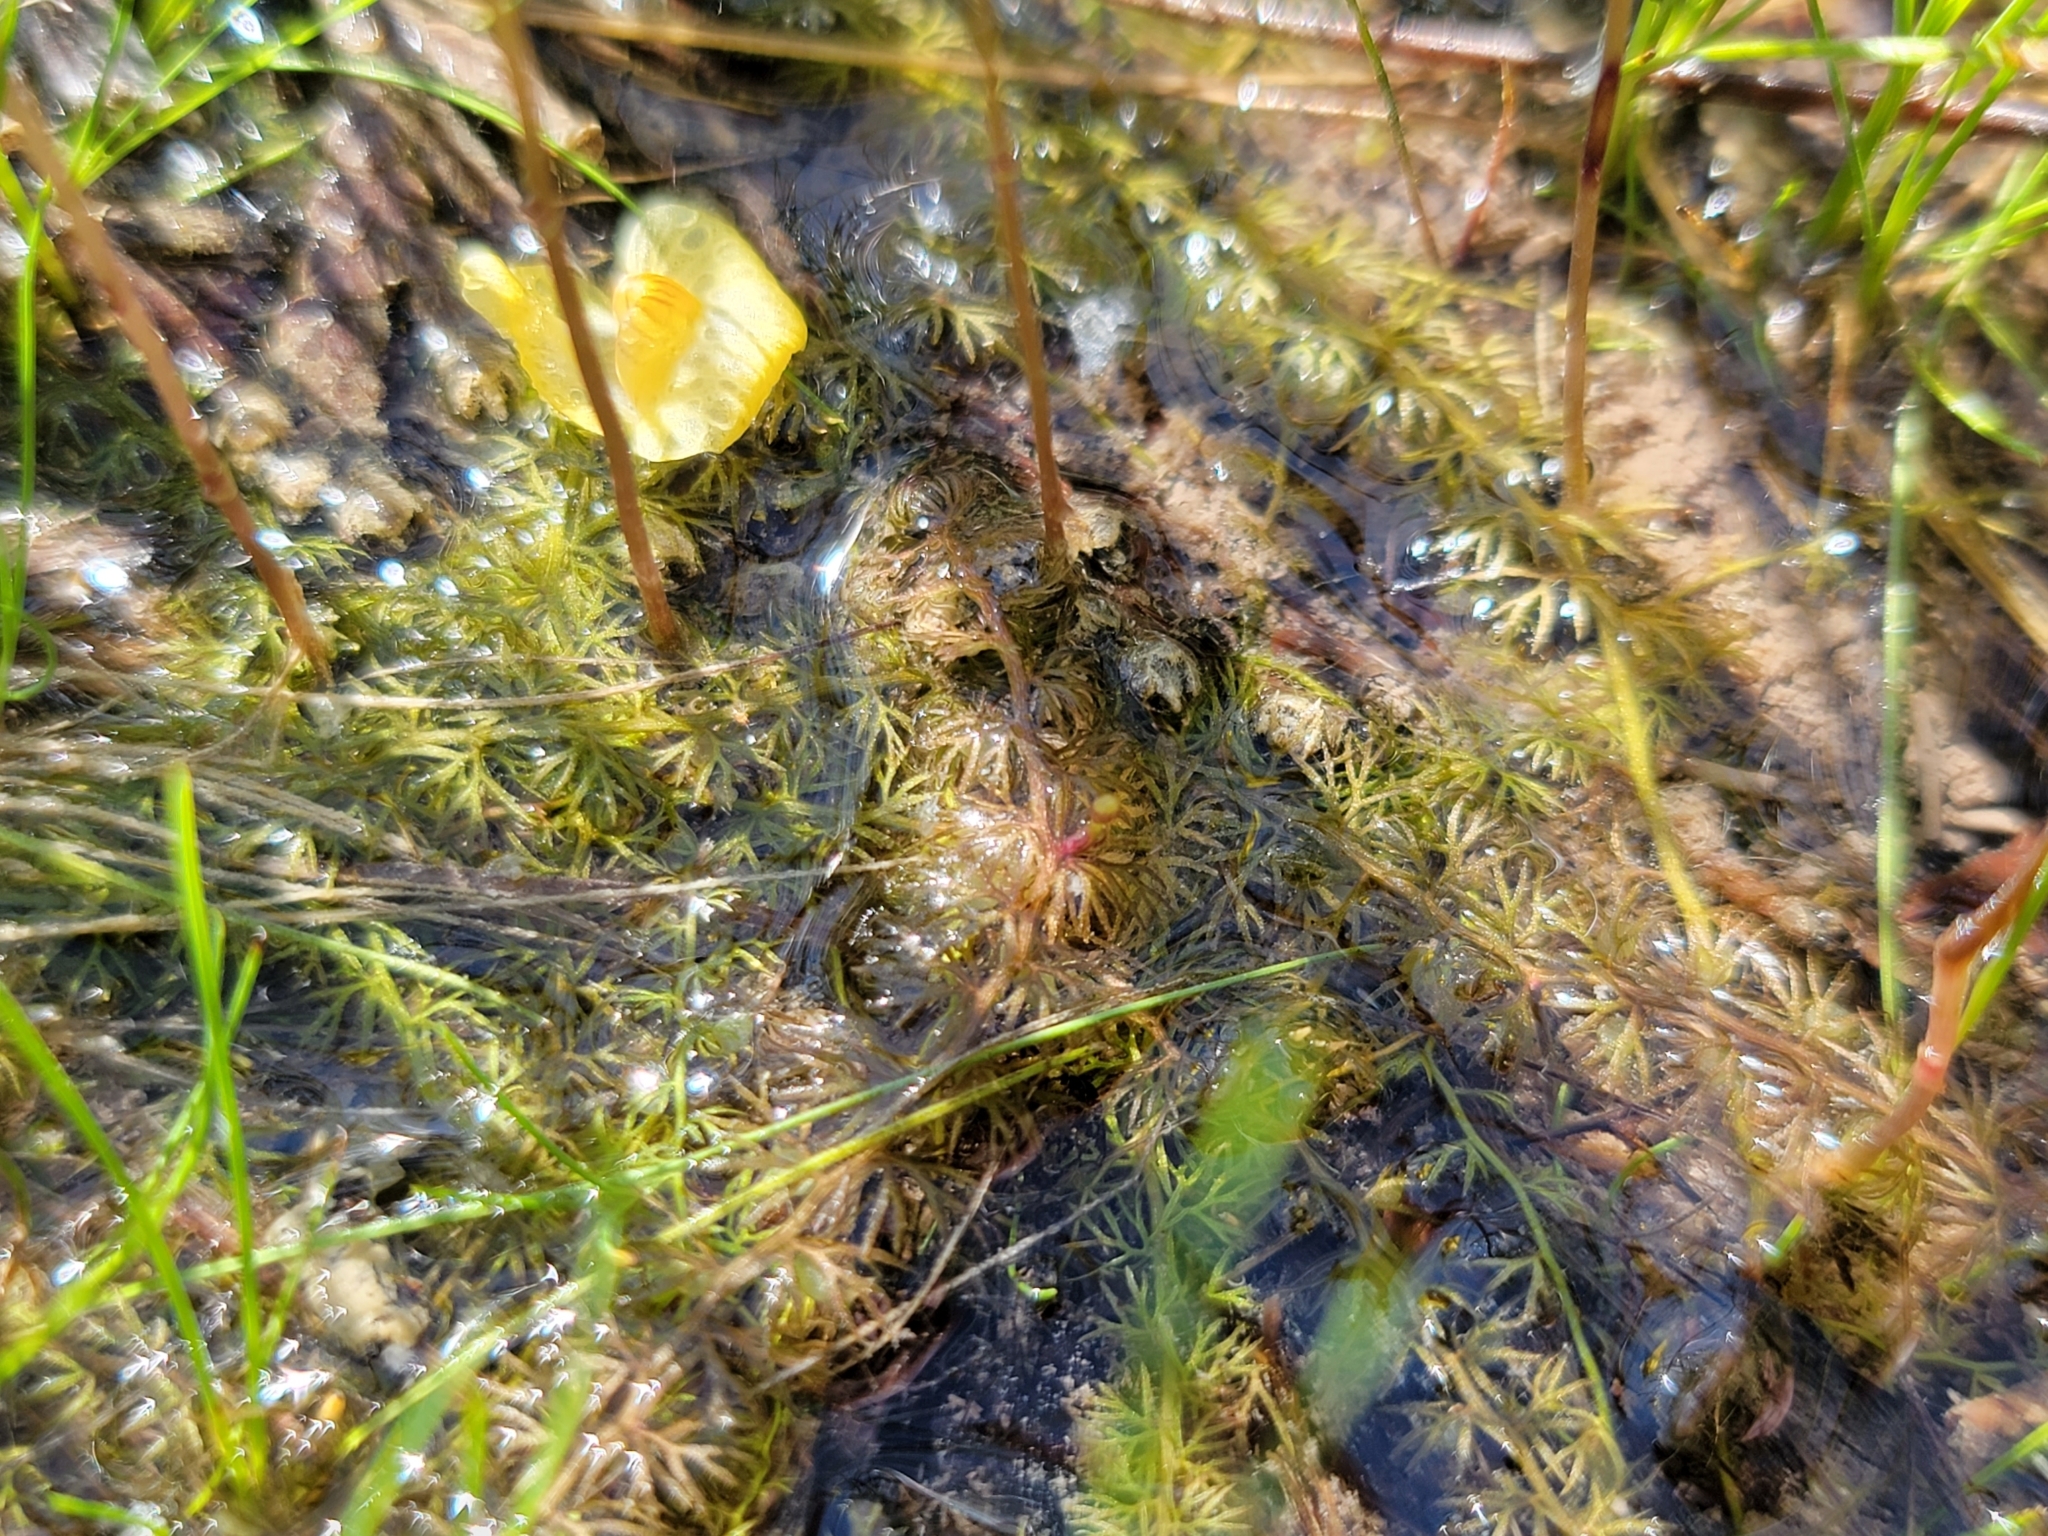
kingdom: Plantae
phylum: Tracheophyta
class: Magnoliopsida
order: Lamiales
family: Lentibulariaceae
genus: Utricularia
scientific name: Utricularia ochroleuca
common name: Pale bladderwort
